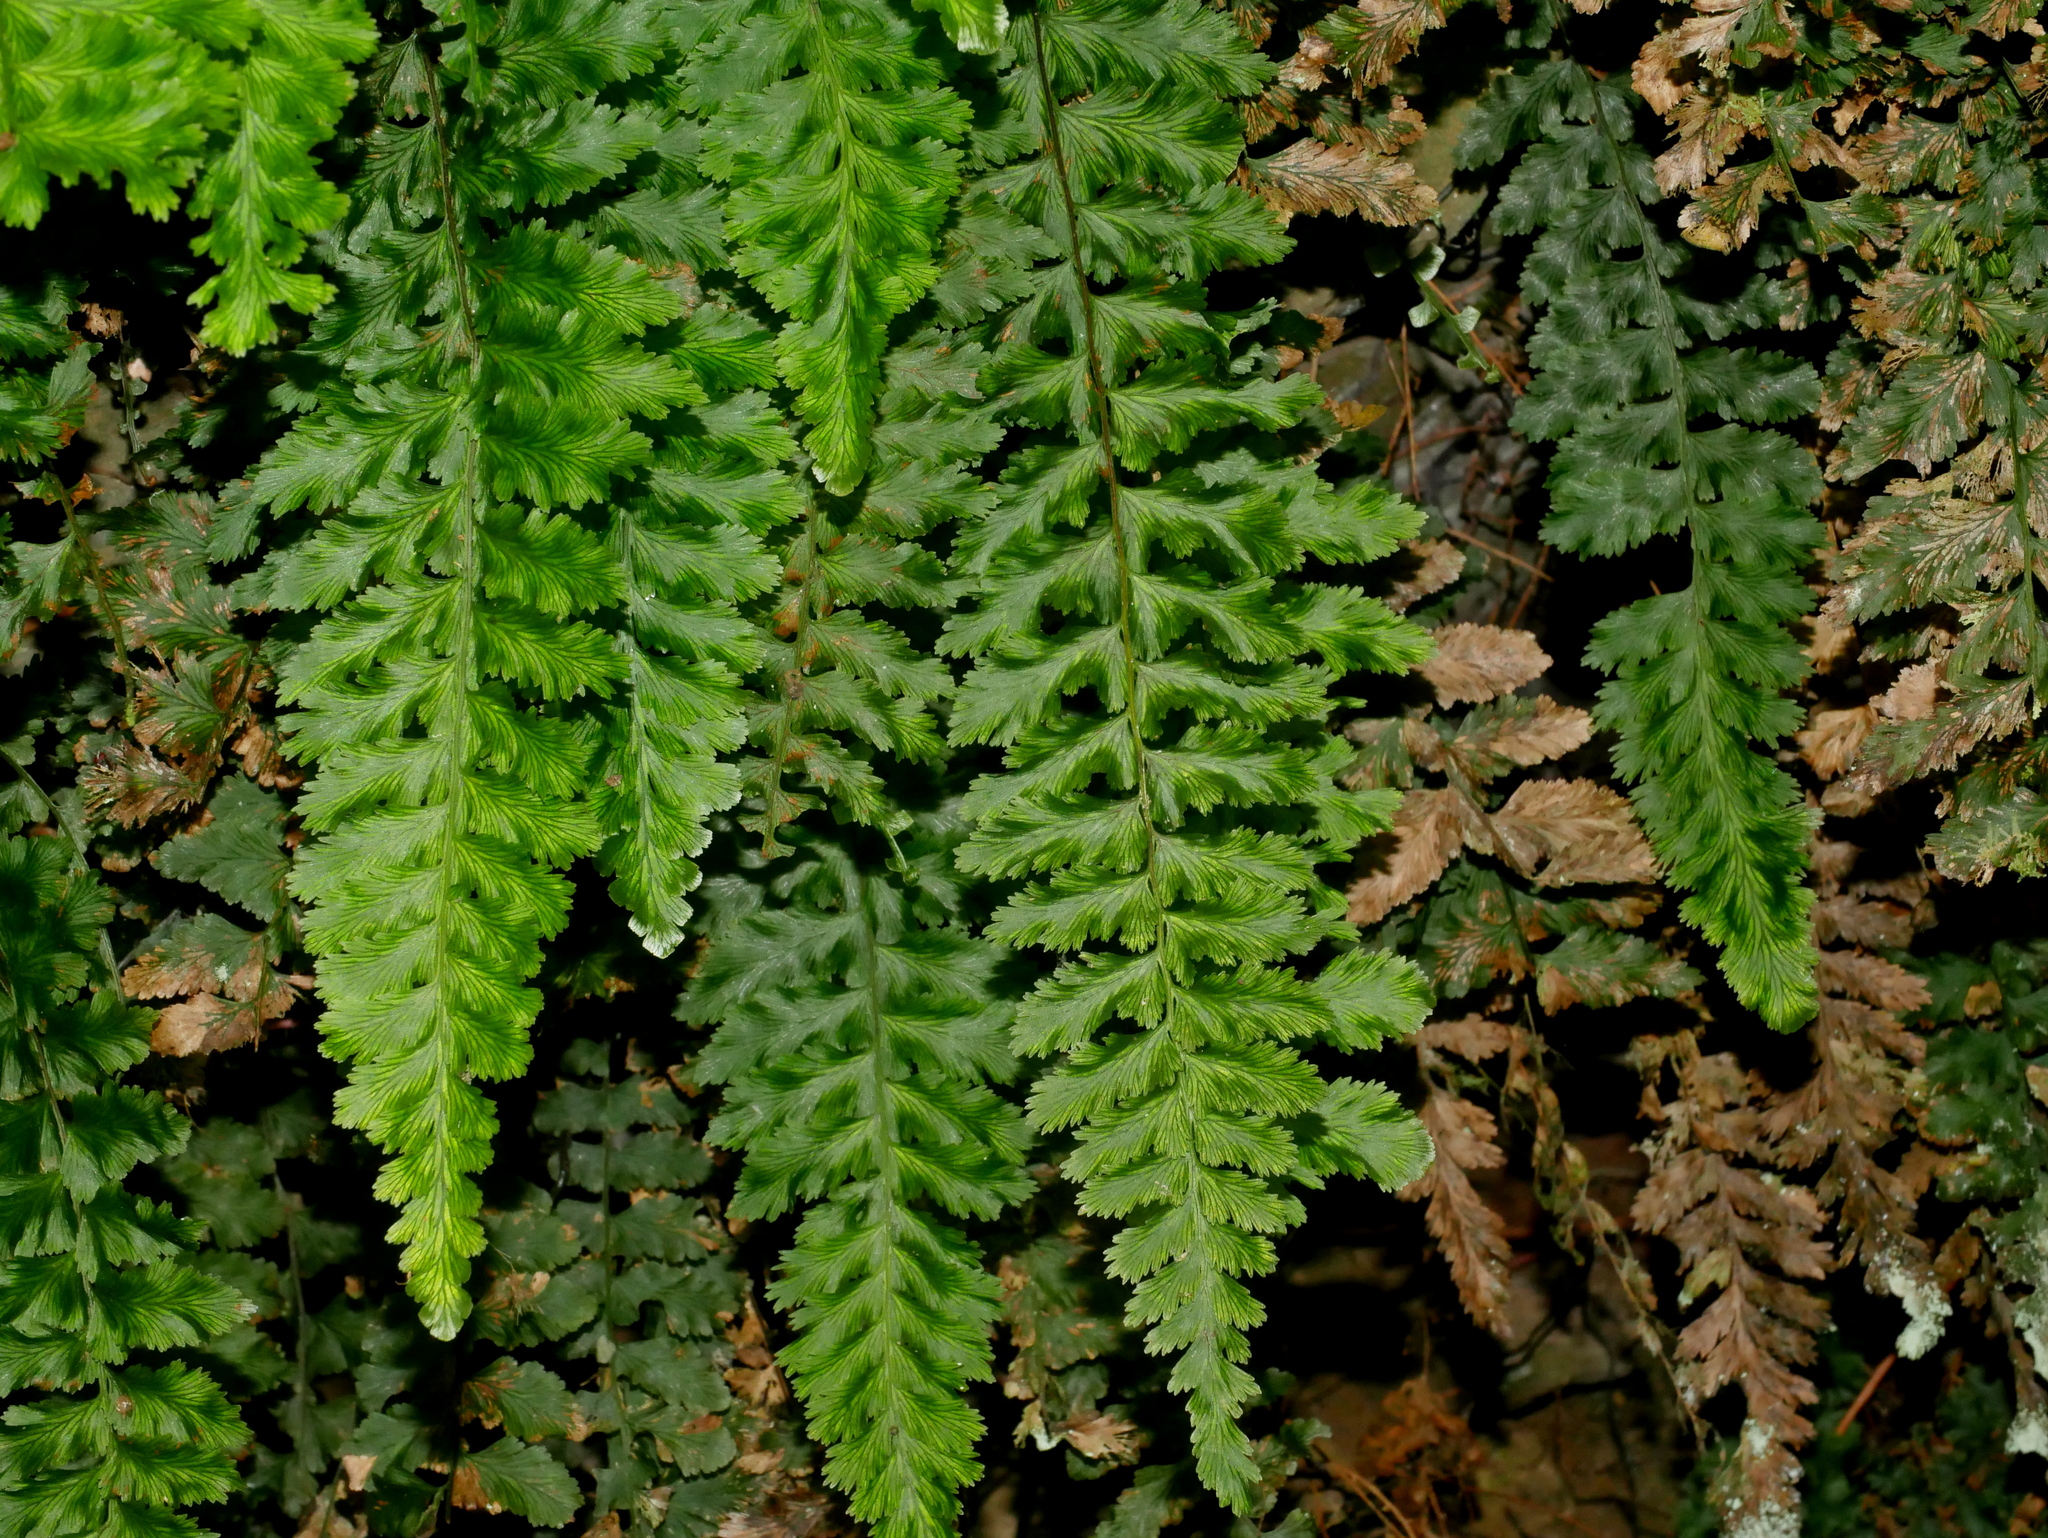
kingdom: Plantae
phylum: Tracheophyta
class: Polypodiopsida
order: Hymenophyllales
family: Hymenophyllaceae
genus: Vandenboschia
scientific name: Vandenboschia auriculata
